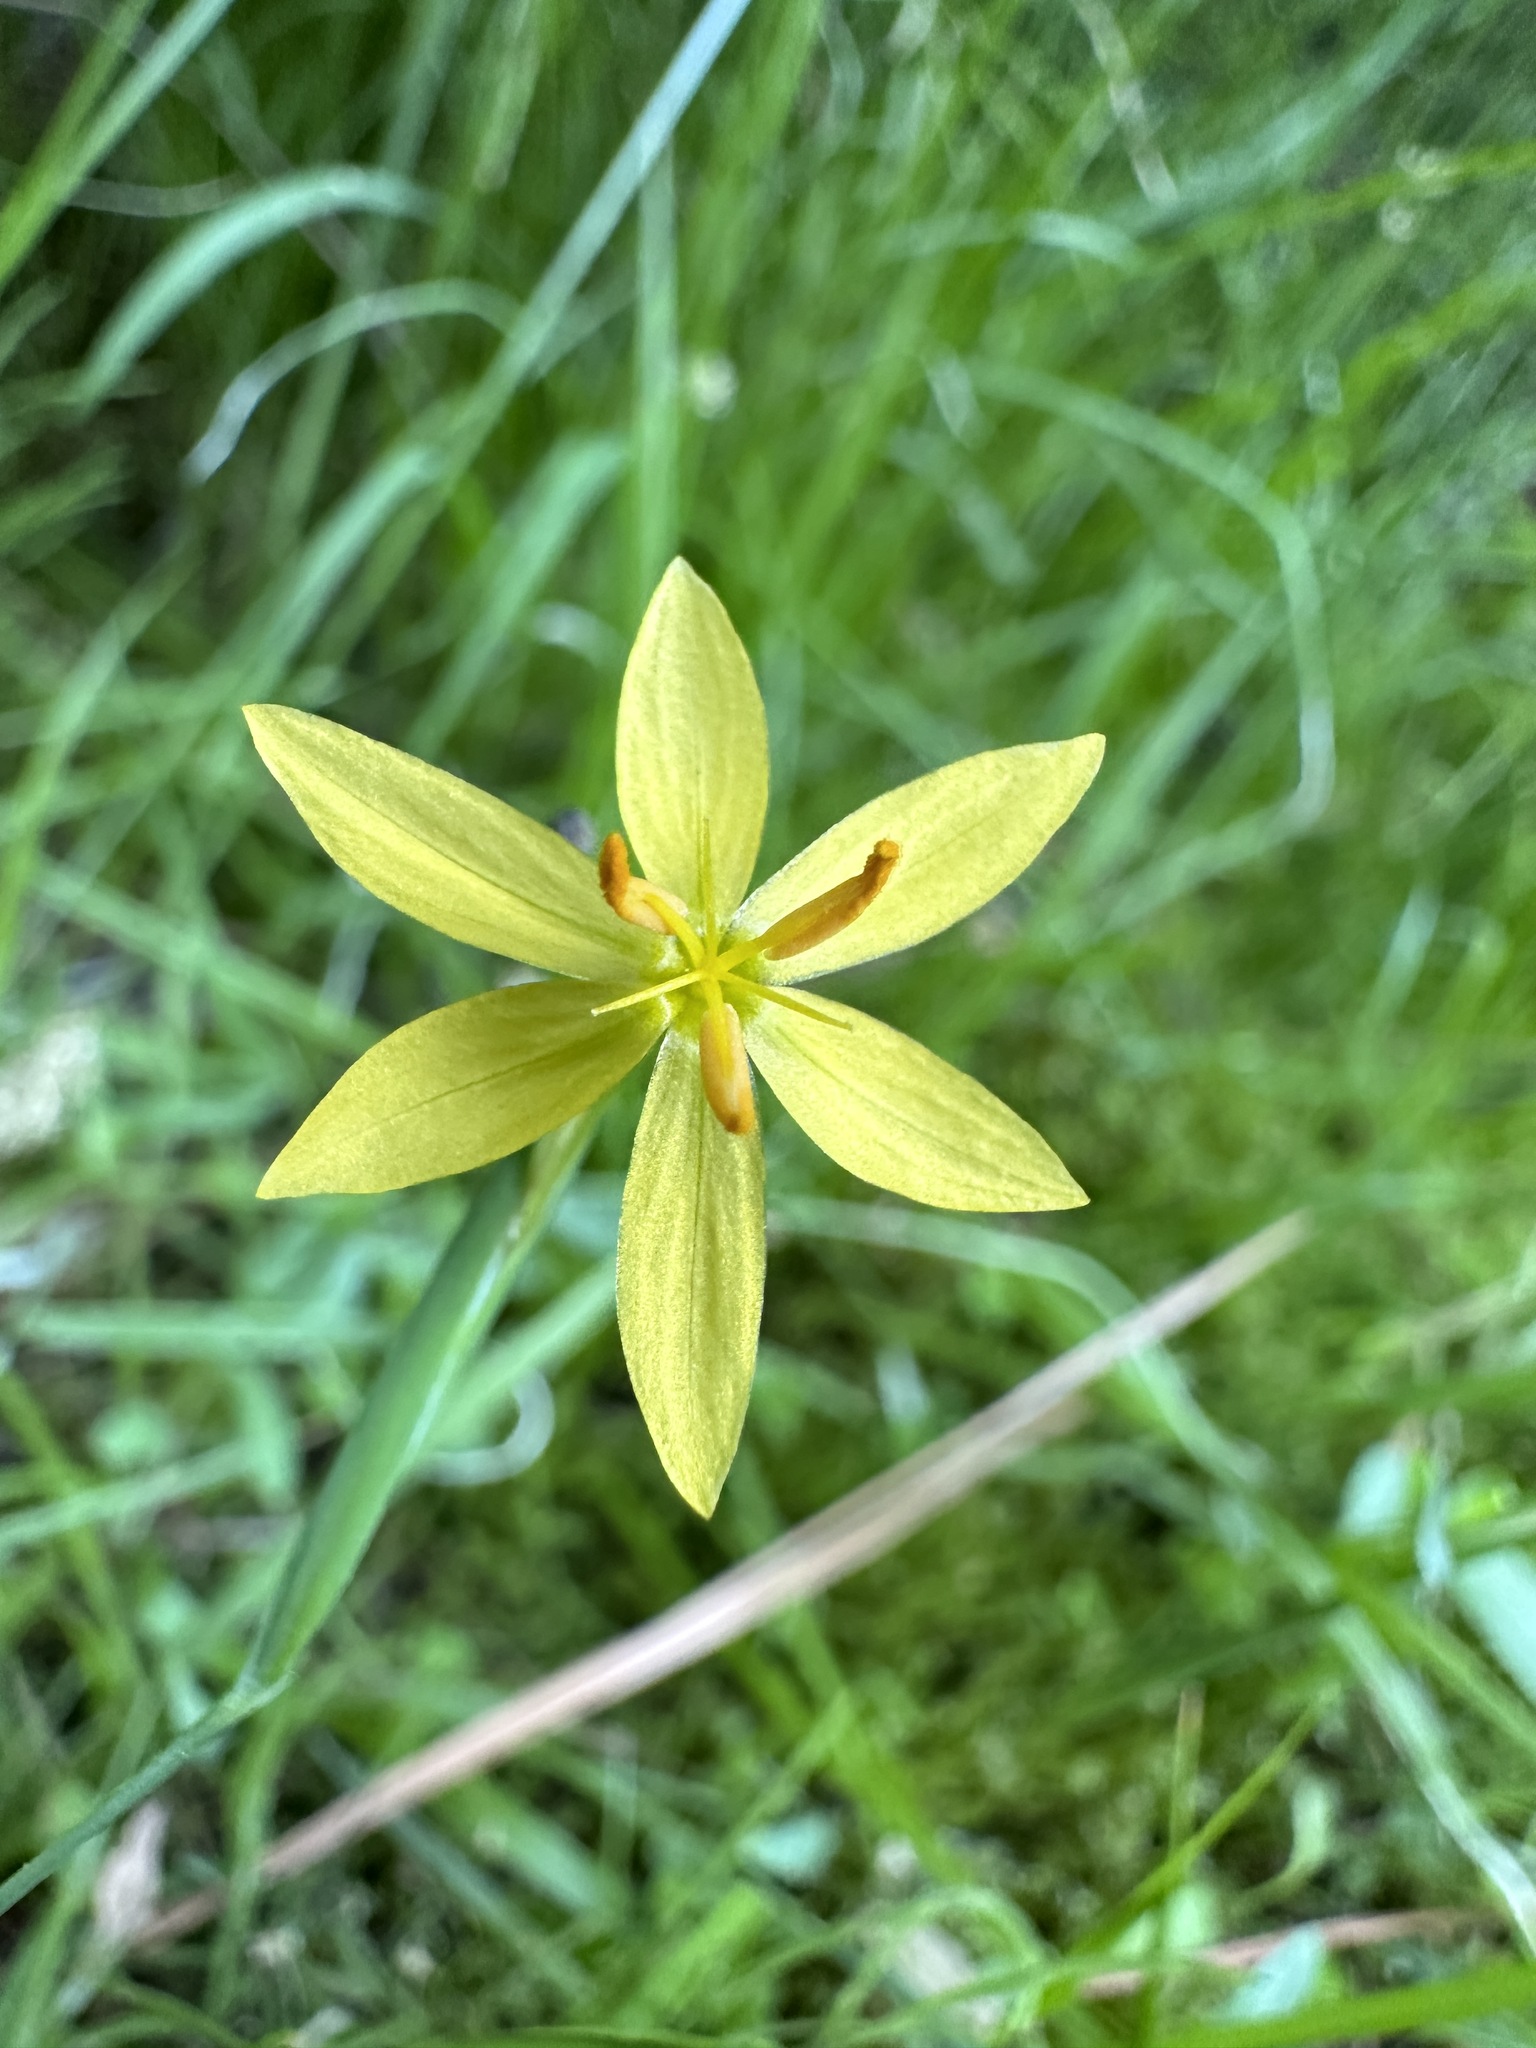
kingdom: Plantae
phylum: Tracheophyta
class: Liliopsida
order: Asparagales
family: Iridaceae
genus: Sisyrinchium
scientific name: Sisyrinchium elmeri
